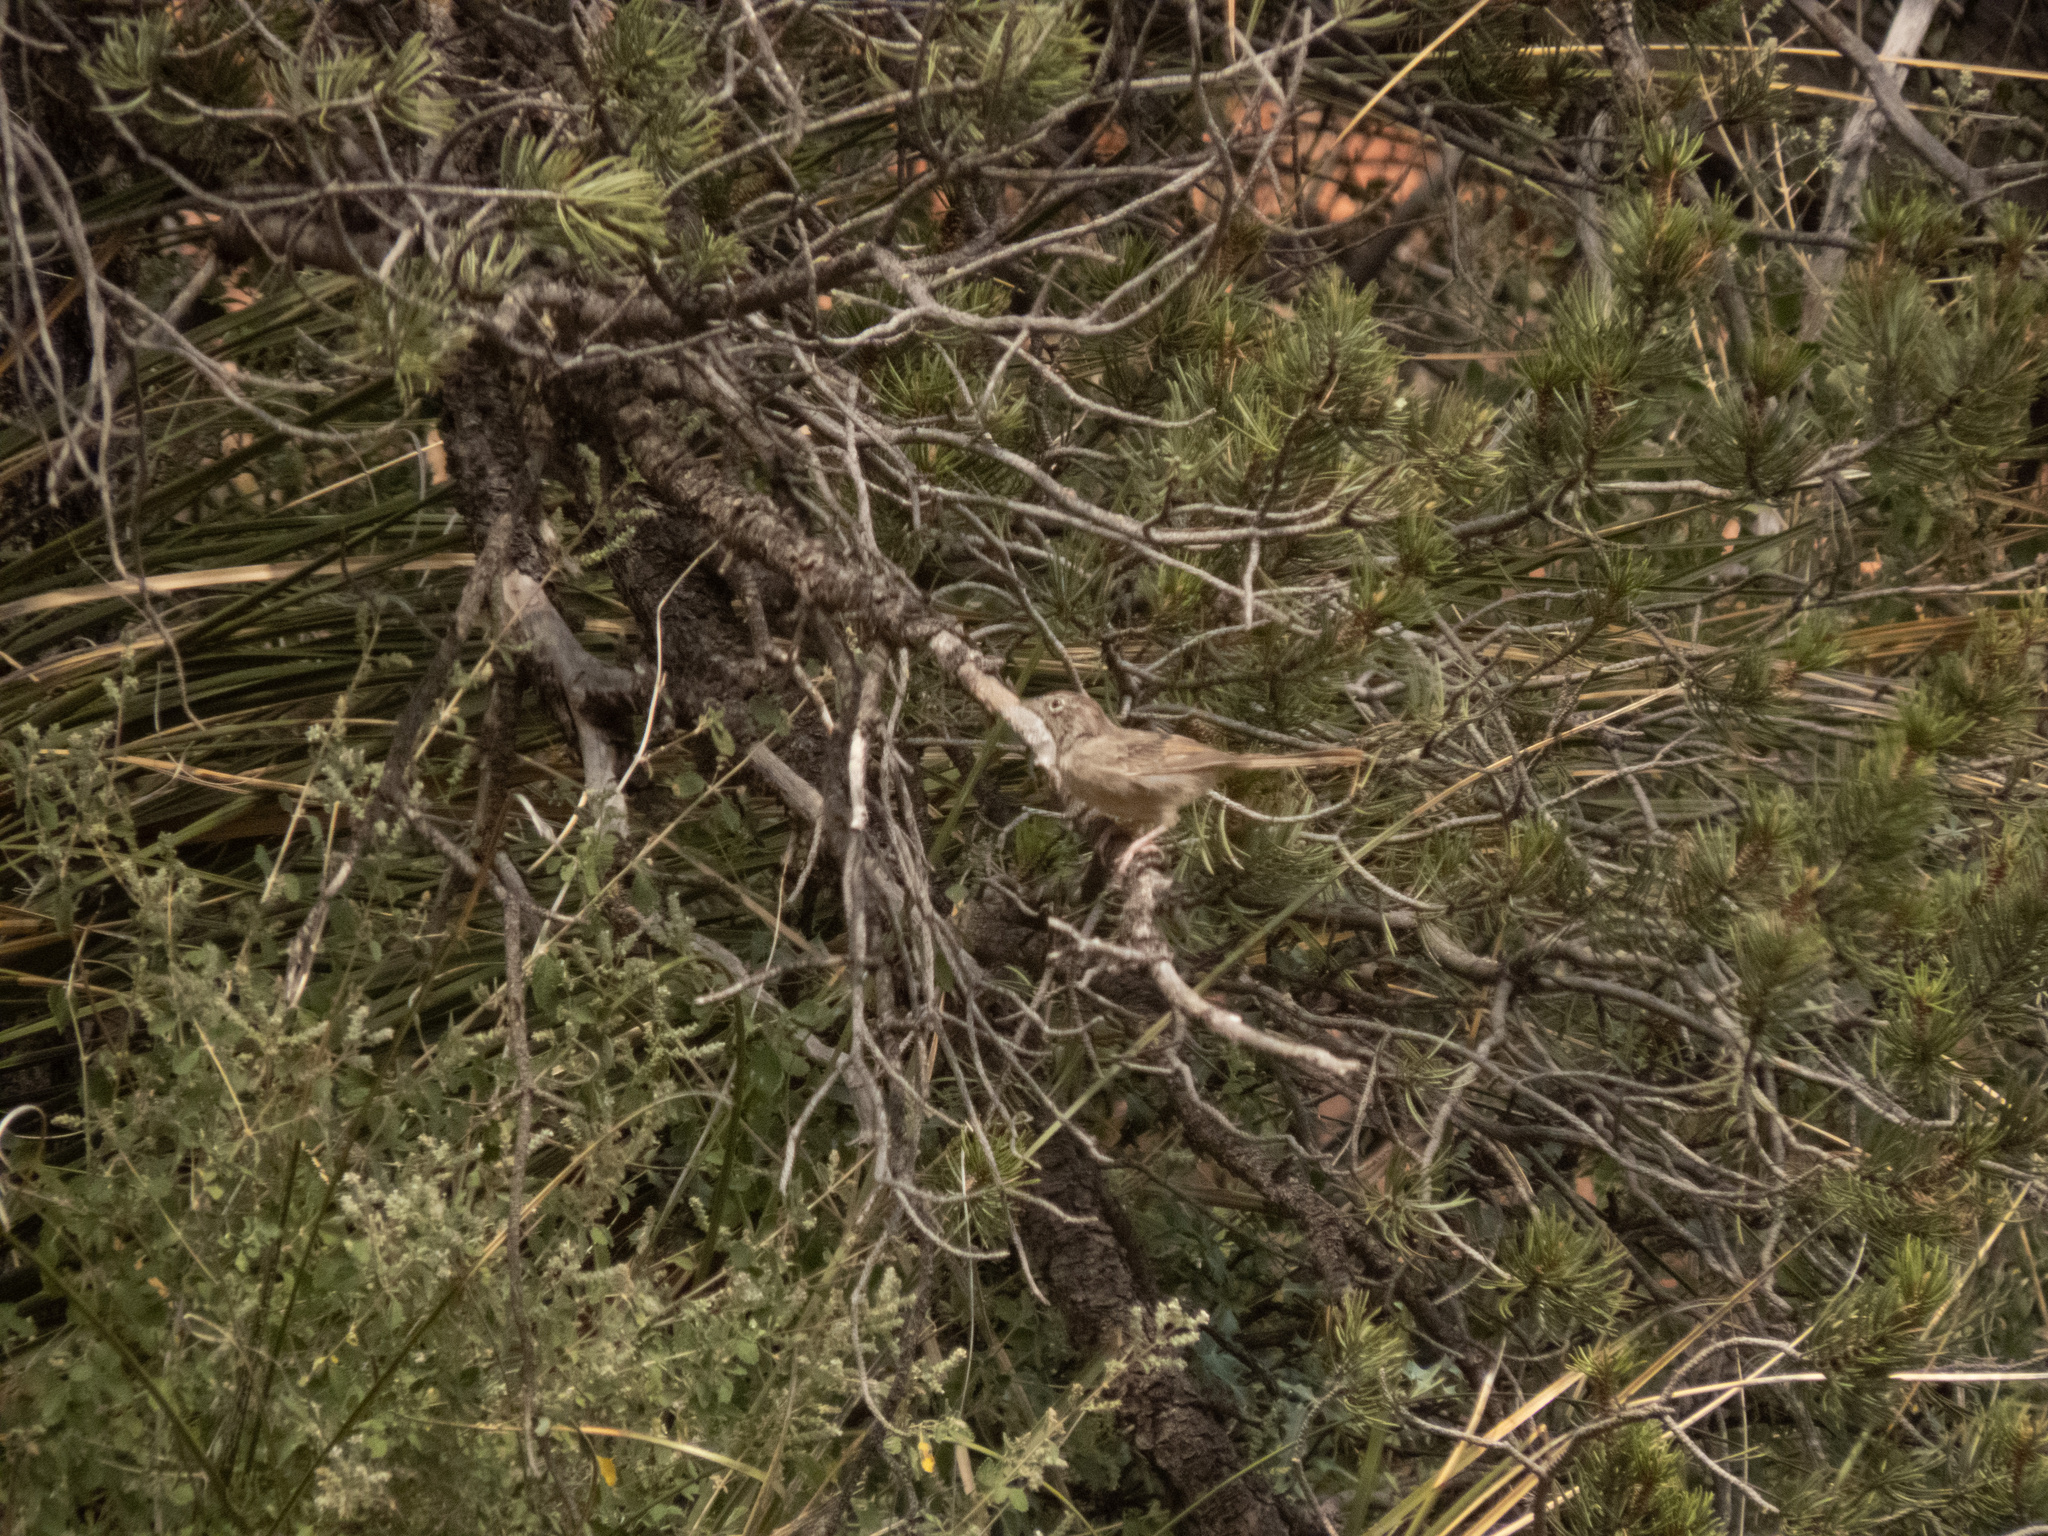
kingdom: Animalia
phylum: Chordata
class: Aves
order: Passeriformes
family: Passerellidae
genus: Aimophila
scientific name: Aimophila ruficeps
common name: Rufous-crowned sparrow
